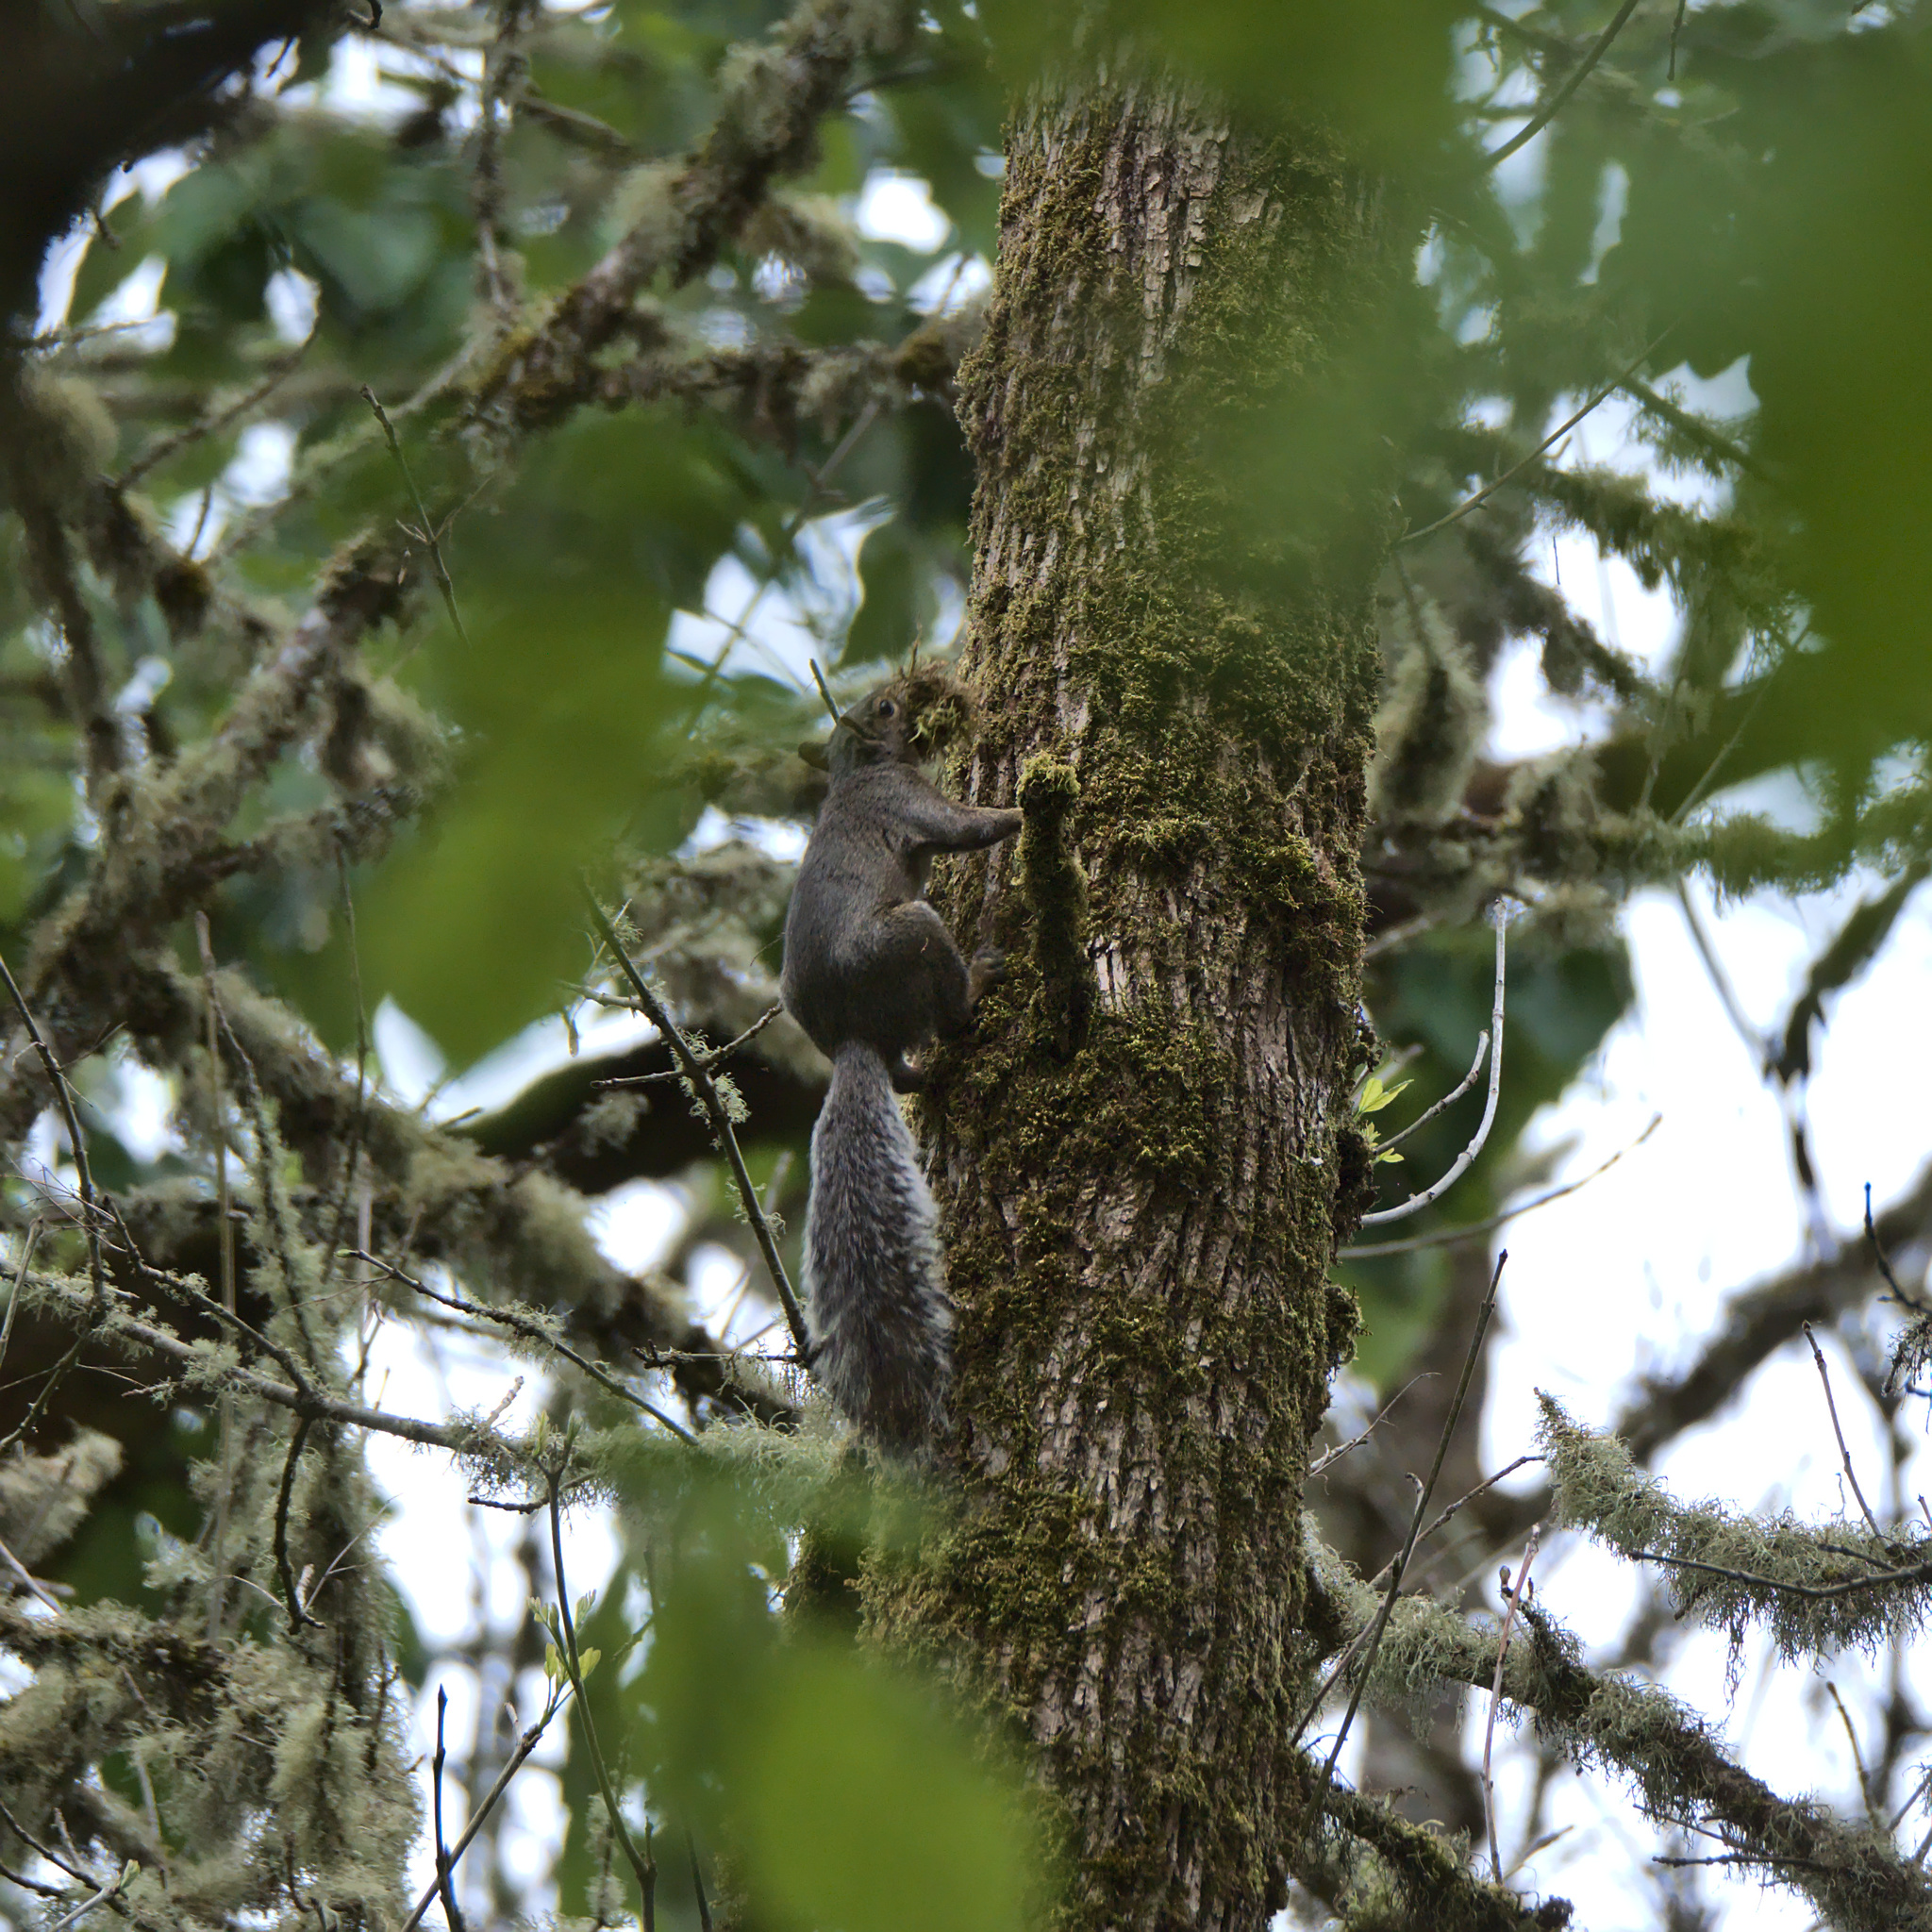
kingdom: Animalia
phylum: Chordata
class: Mammalia
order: Rodentia
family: Sciuridae
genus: Sciurus
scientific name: Sciurus carolinensis
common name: Eastern gray squirrel
